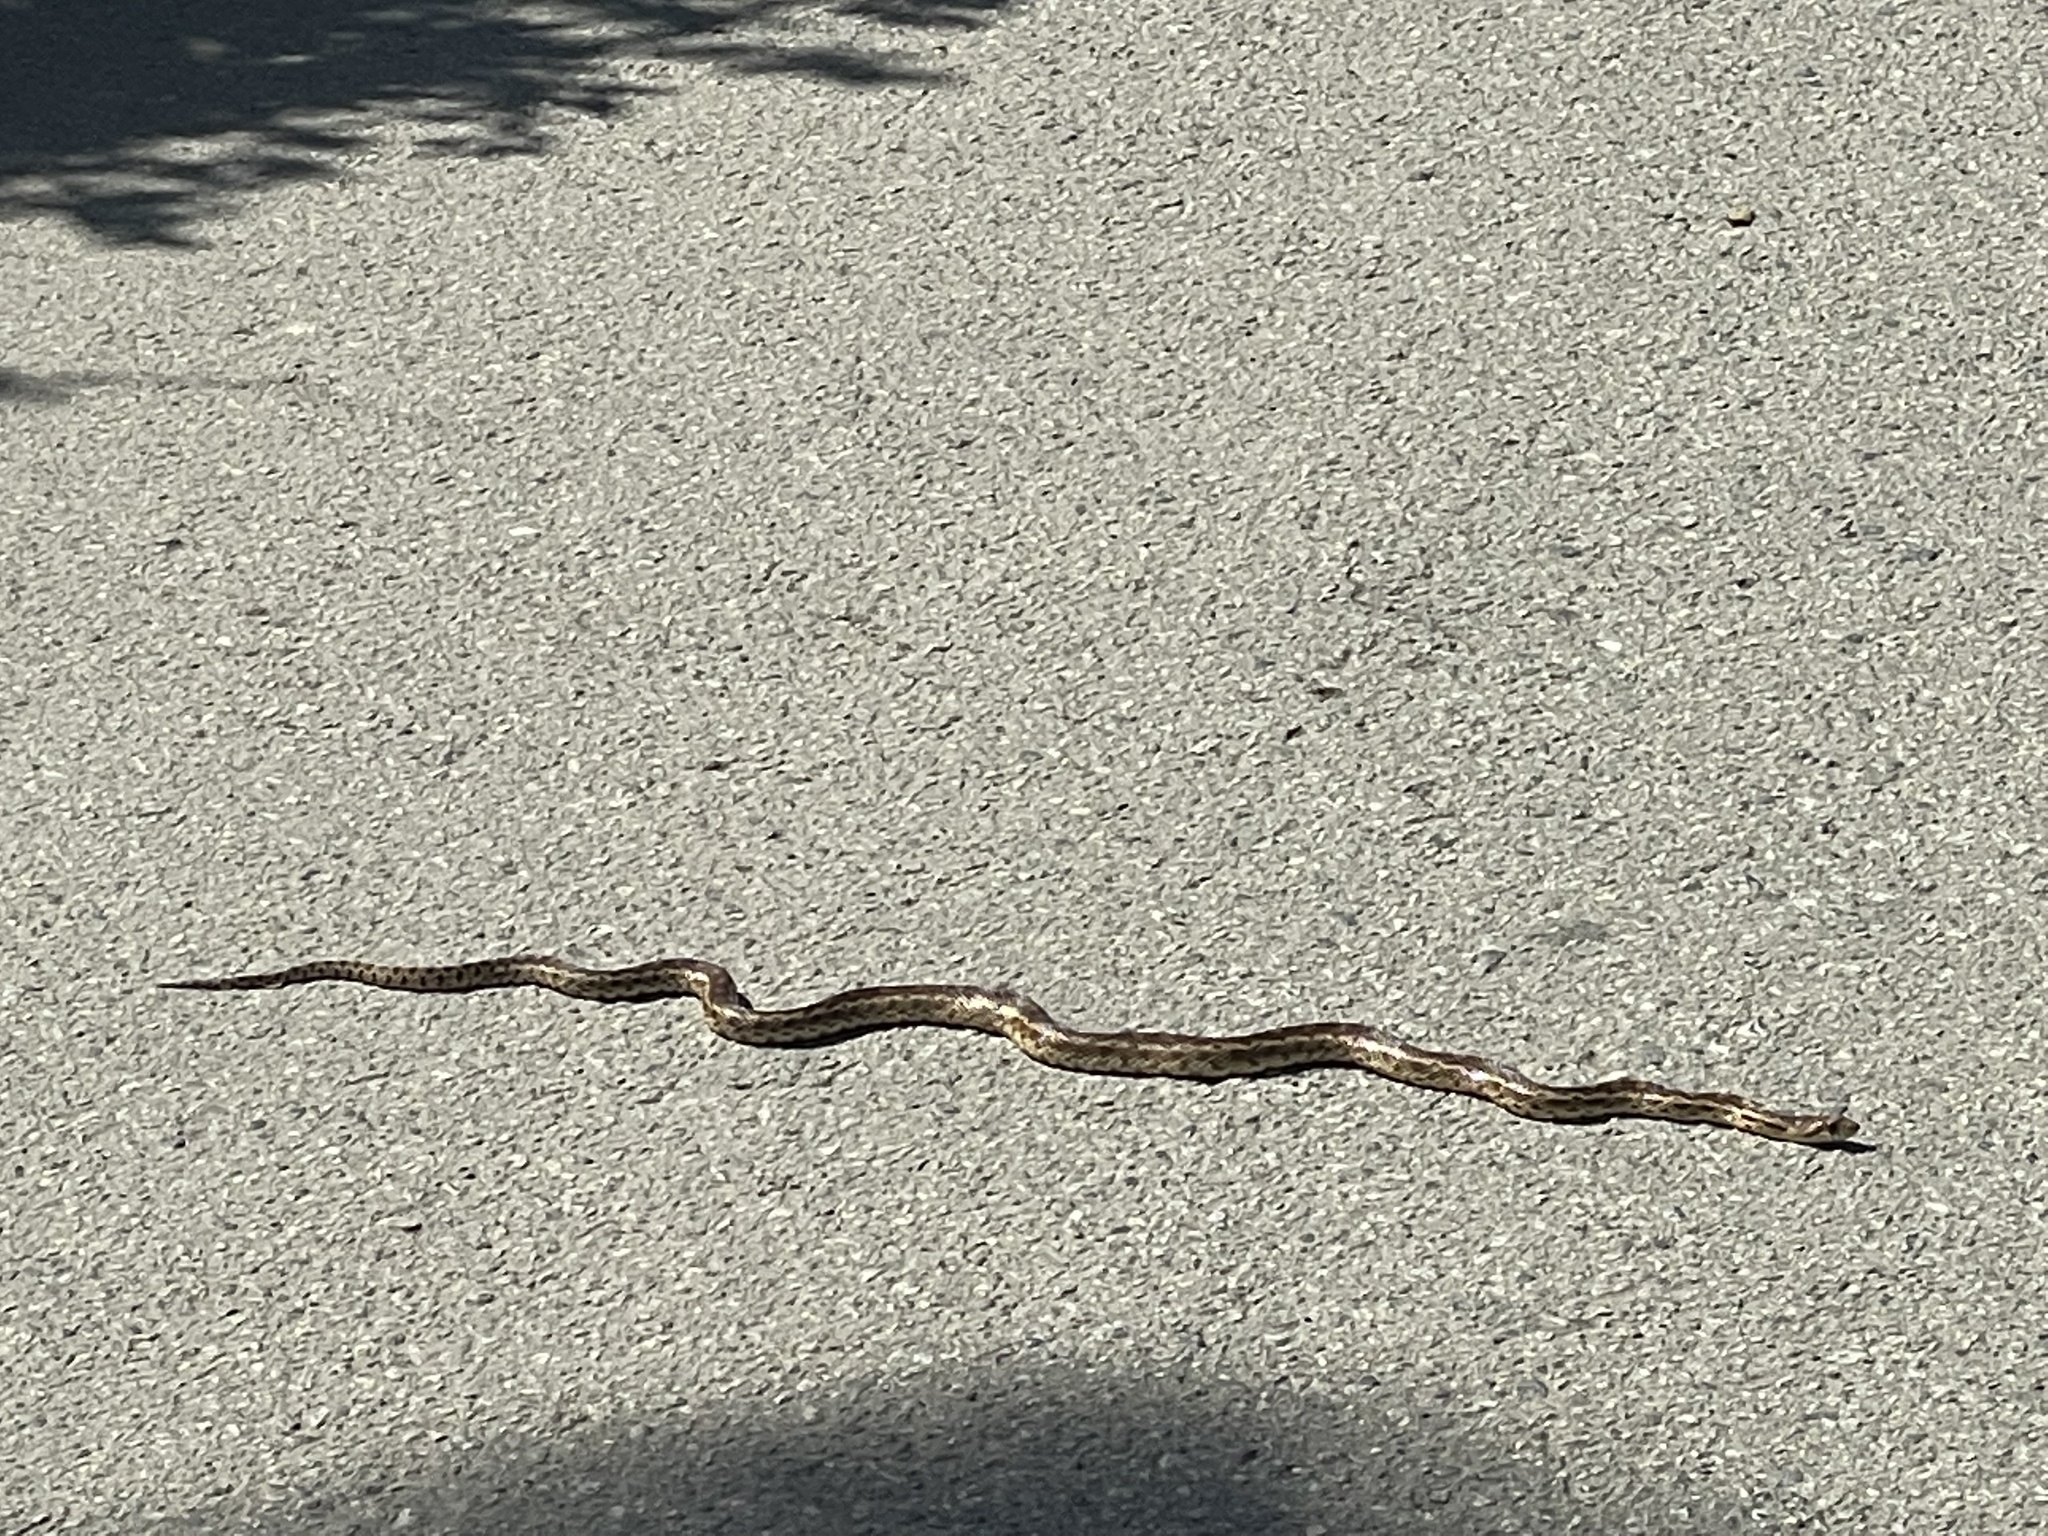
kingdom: Animalia
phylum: Chordata
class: Squamata
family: Colubridae
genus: Pituophis
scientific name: Pituophis catenifer
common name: Gopher snake
